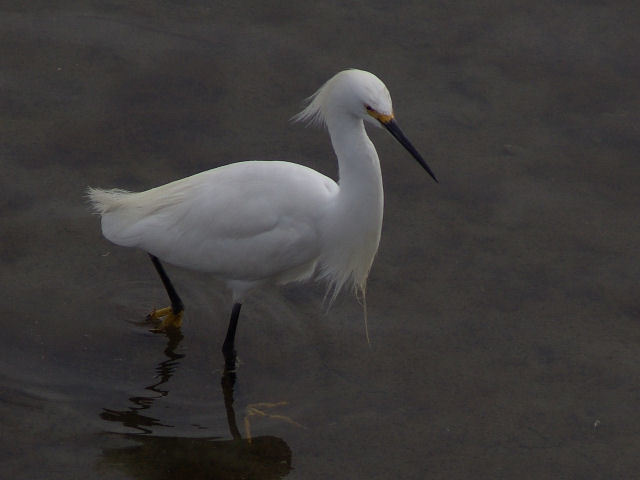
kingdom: Animalia
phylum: Chordata
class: Aves
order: Pelecaniformes
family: Ardeidae
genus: Egretta
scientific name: Egretta thula
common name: Snowy egret
